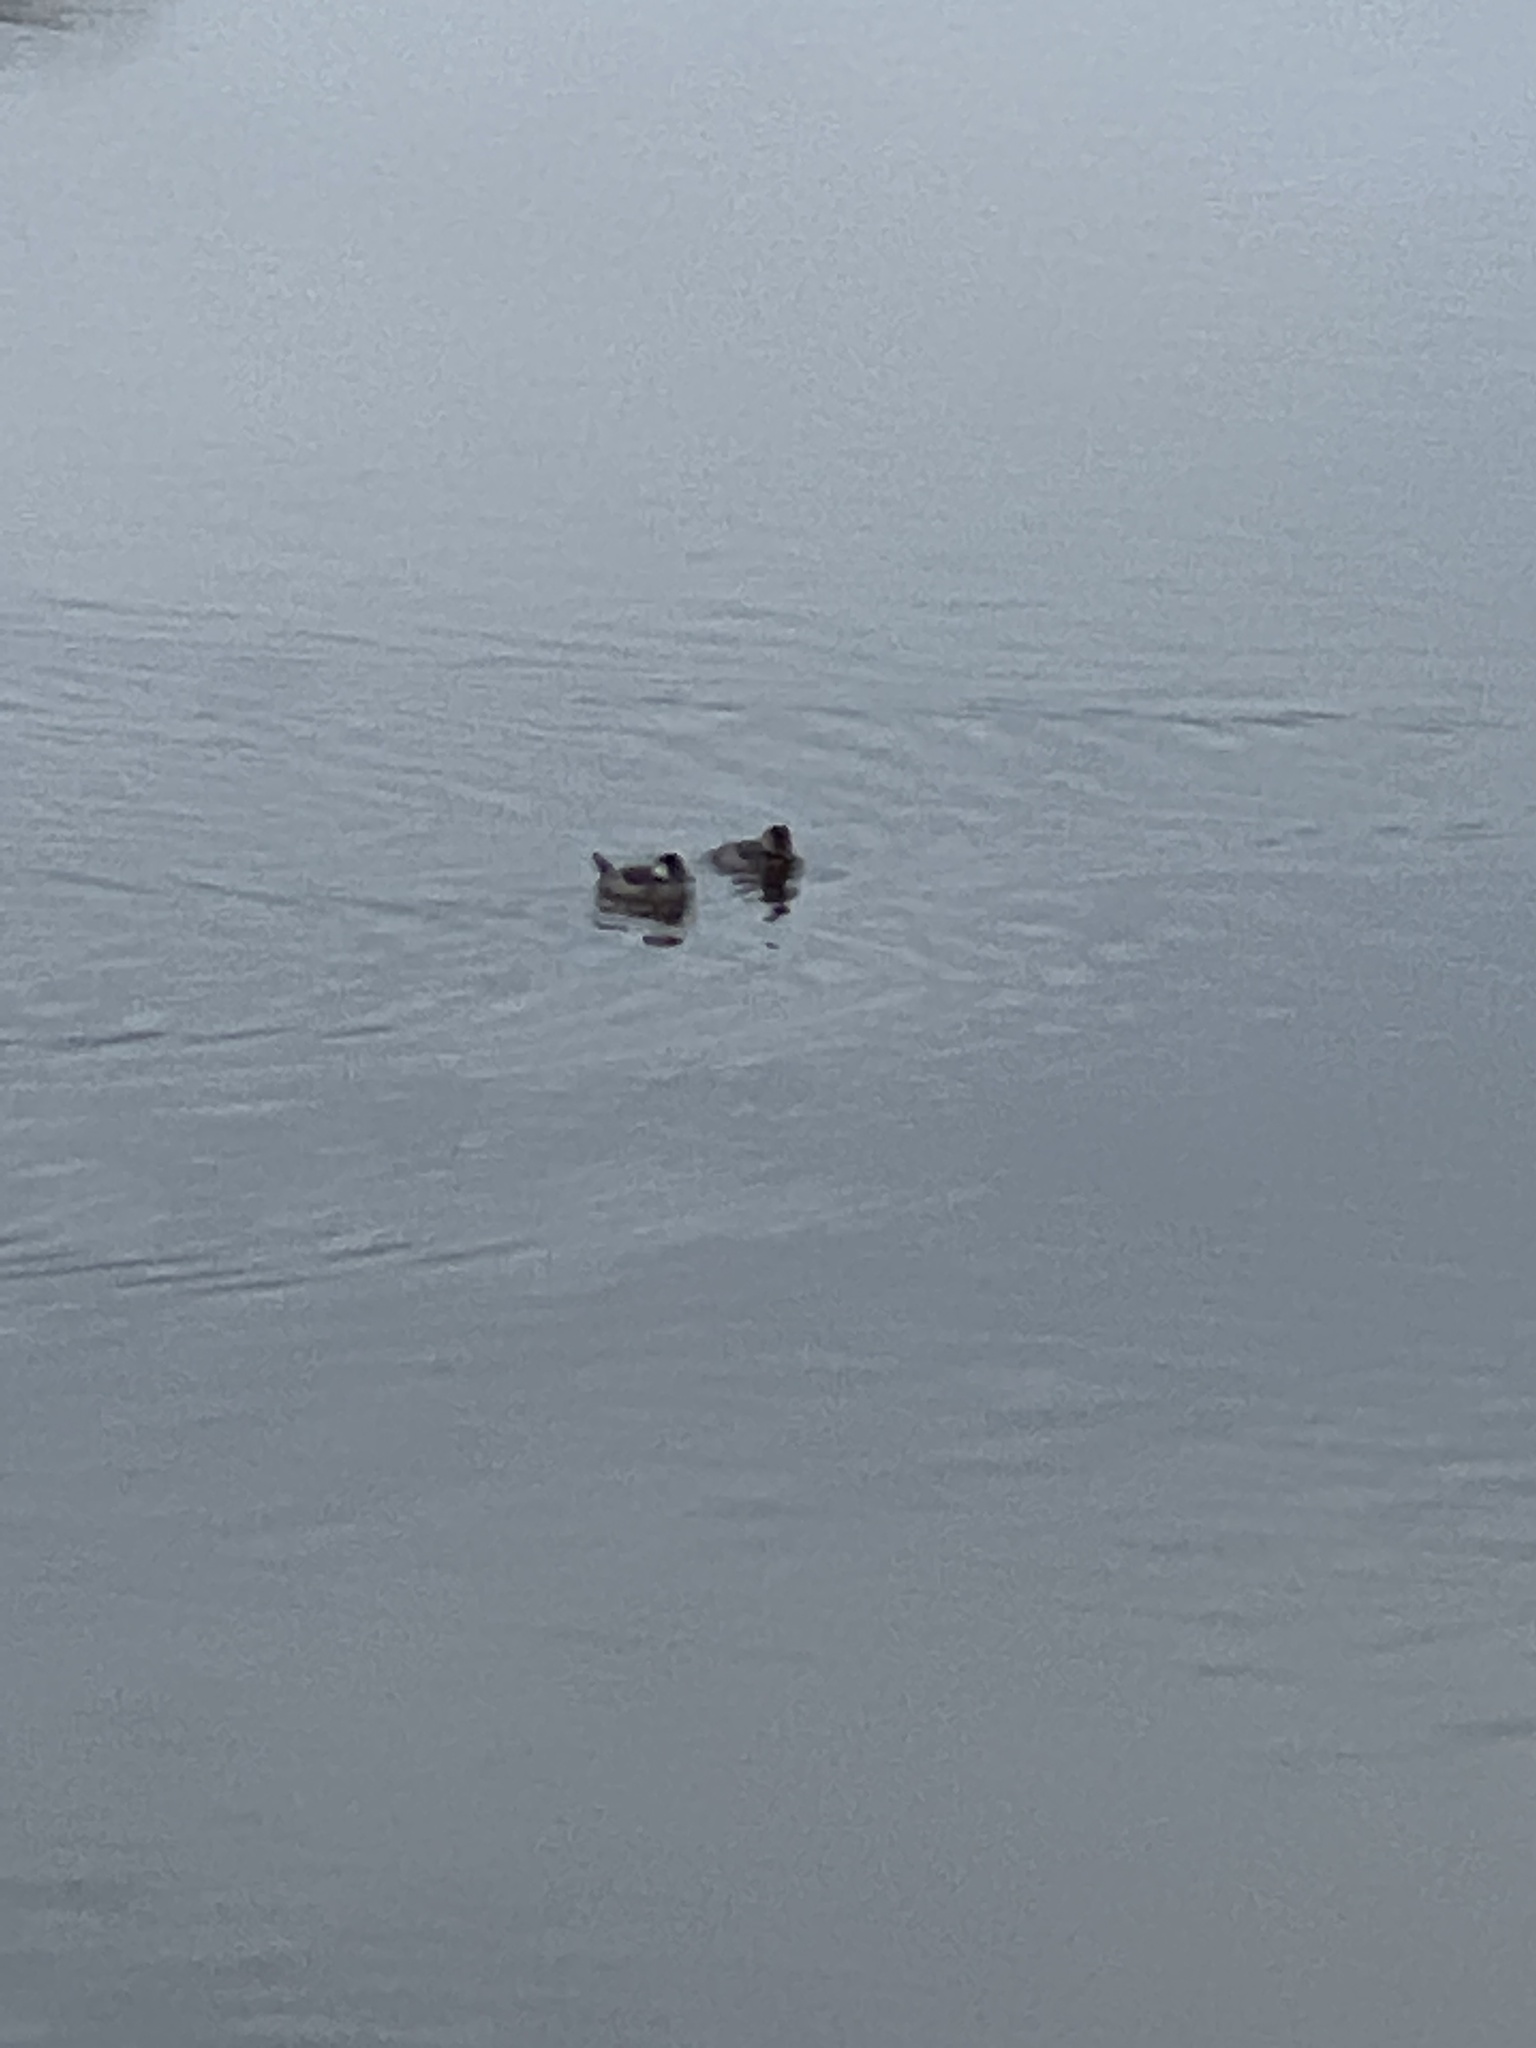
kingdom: Animalia
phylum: Chordata
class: Aves
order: Anseriformes
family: Anatidae
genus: Oxyura
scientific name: Oxyura jamaicensis
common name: Ruddy duck
